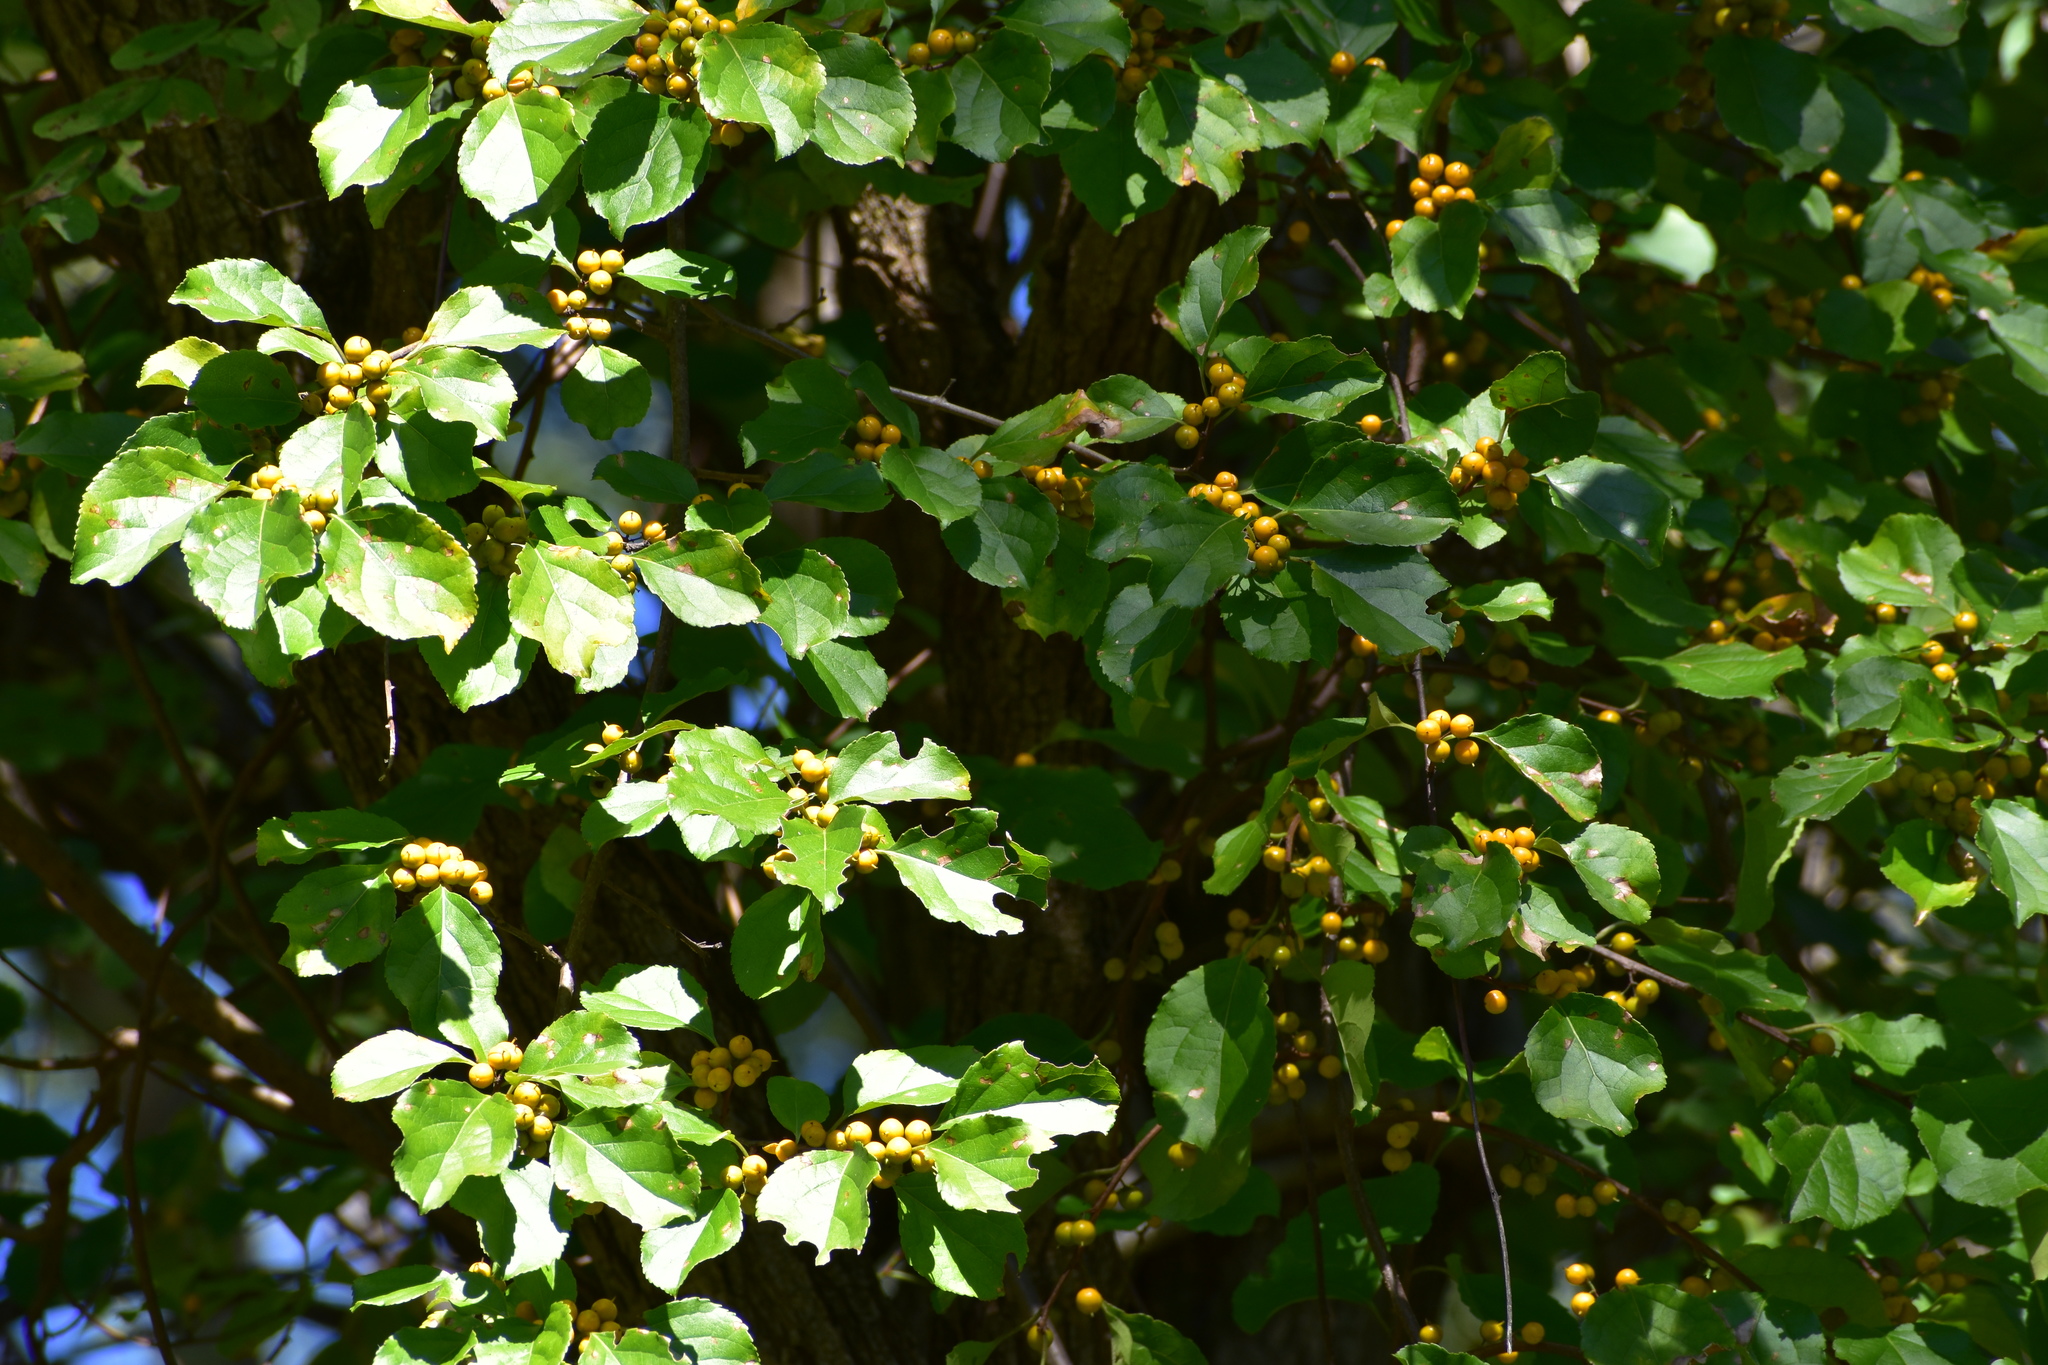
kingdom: Plantae
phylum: Tracheophyta
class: Magnoliopsida
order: Celastrales
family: Celastraceae
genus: Celastrus
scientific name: Celastrus orbiculatus
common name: Oriental bittersweet
